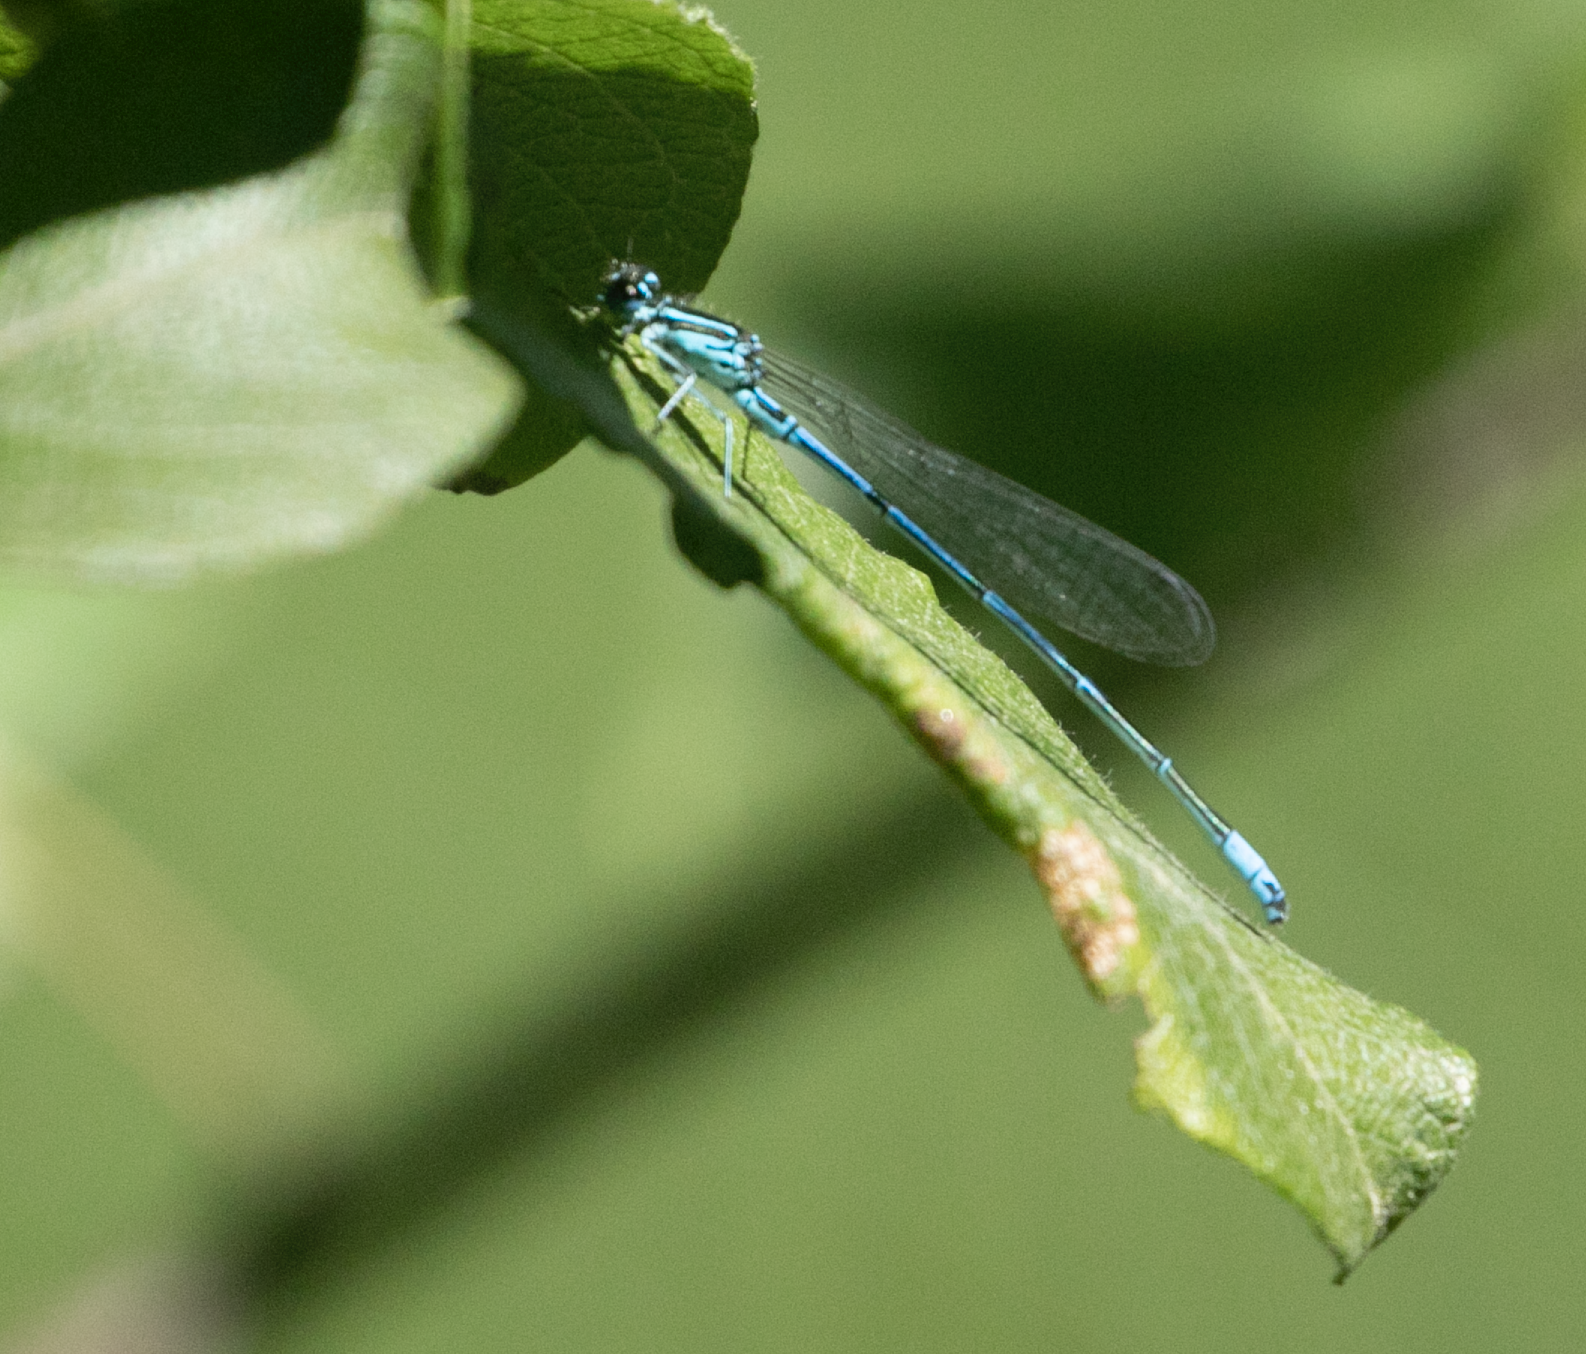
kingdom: Animalia
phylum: Arthropoda
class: Insecta
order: Odonata
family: Coenagrionidae
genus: Coenagrion
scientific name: Coenagrion puella
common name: Azure damselfly
